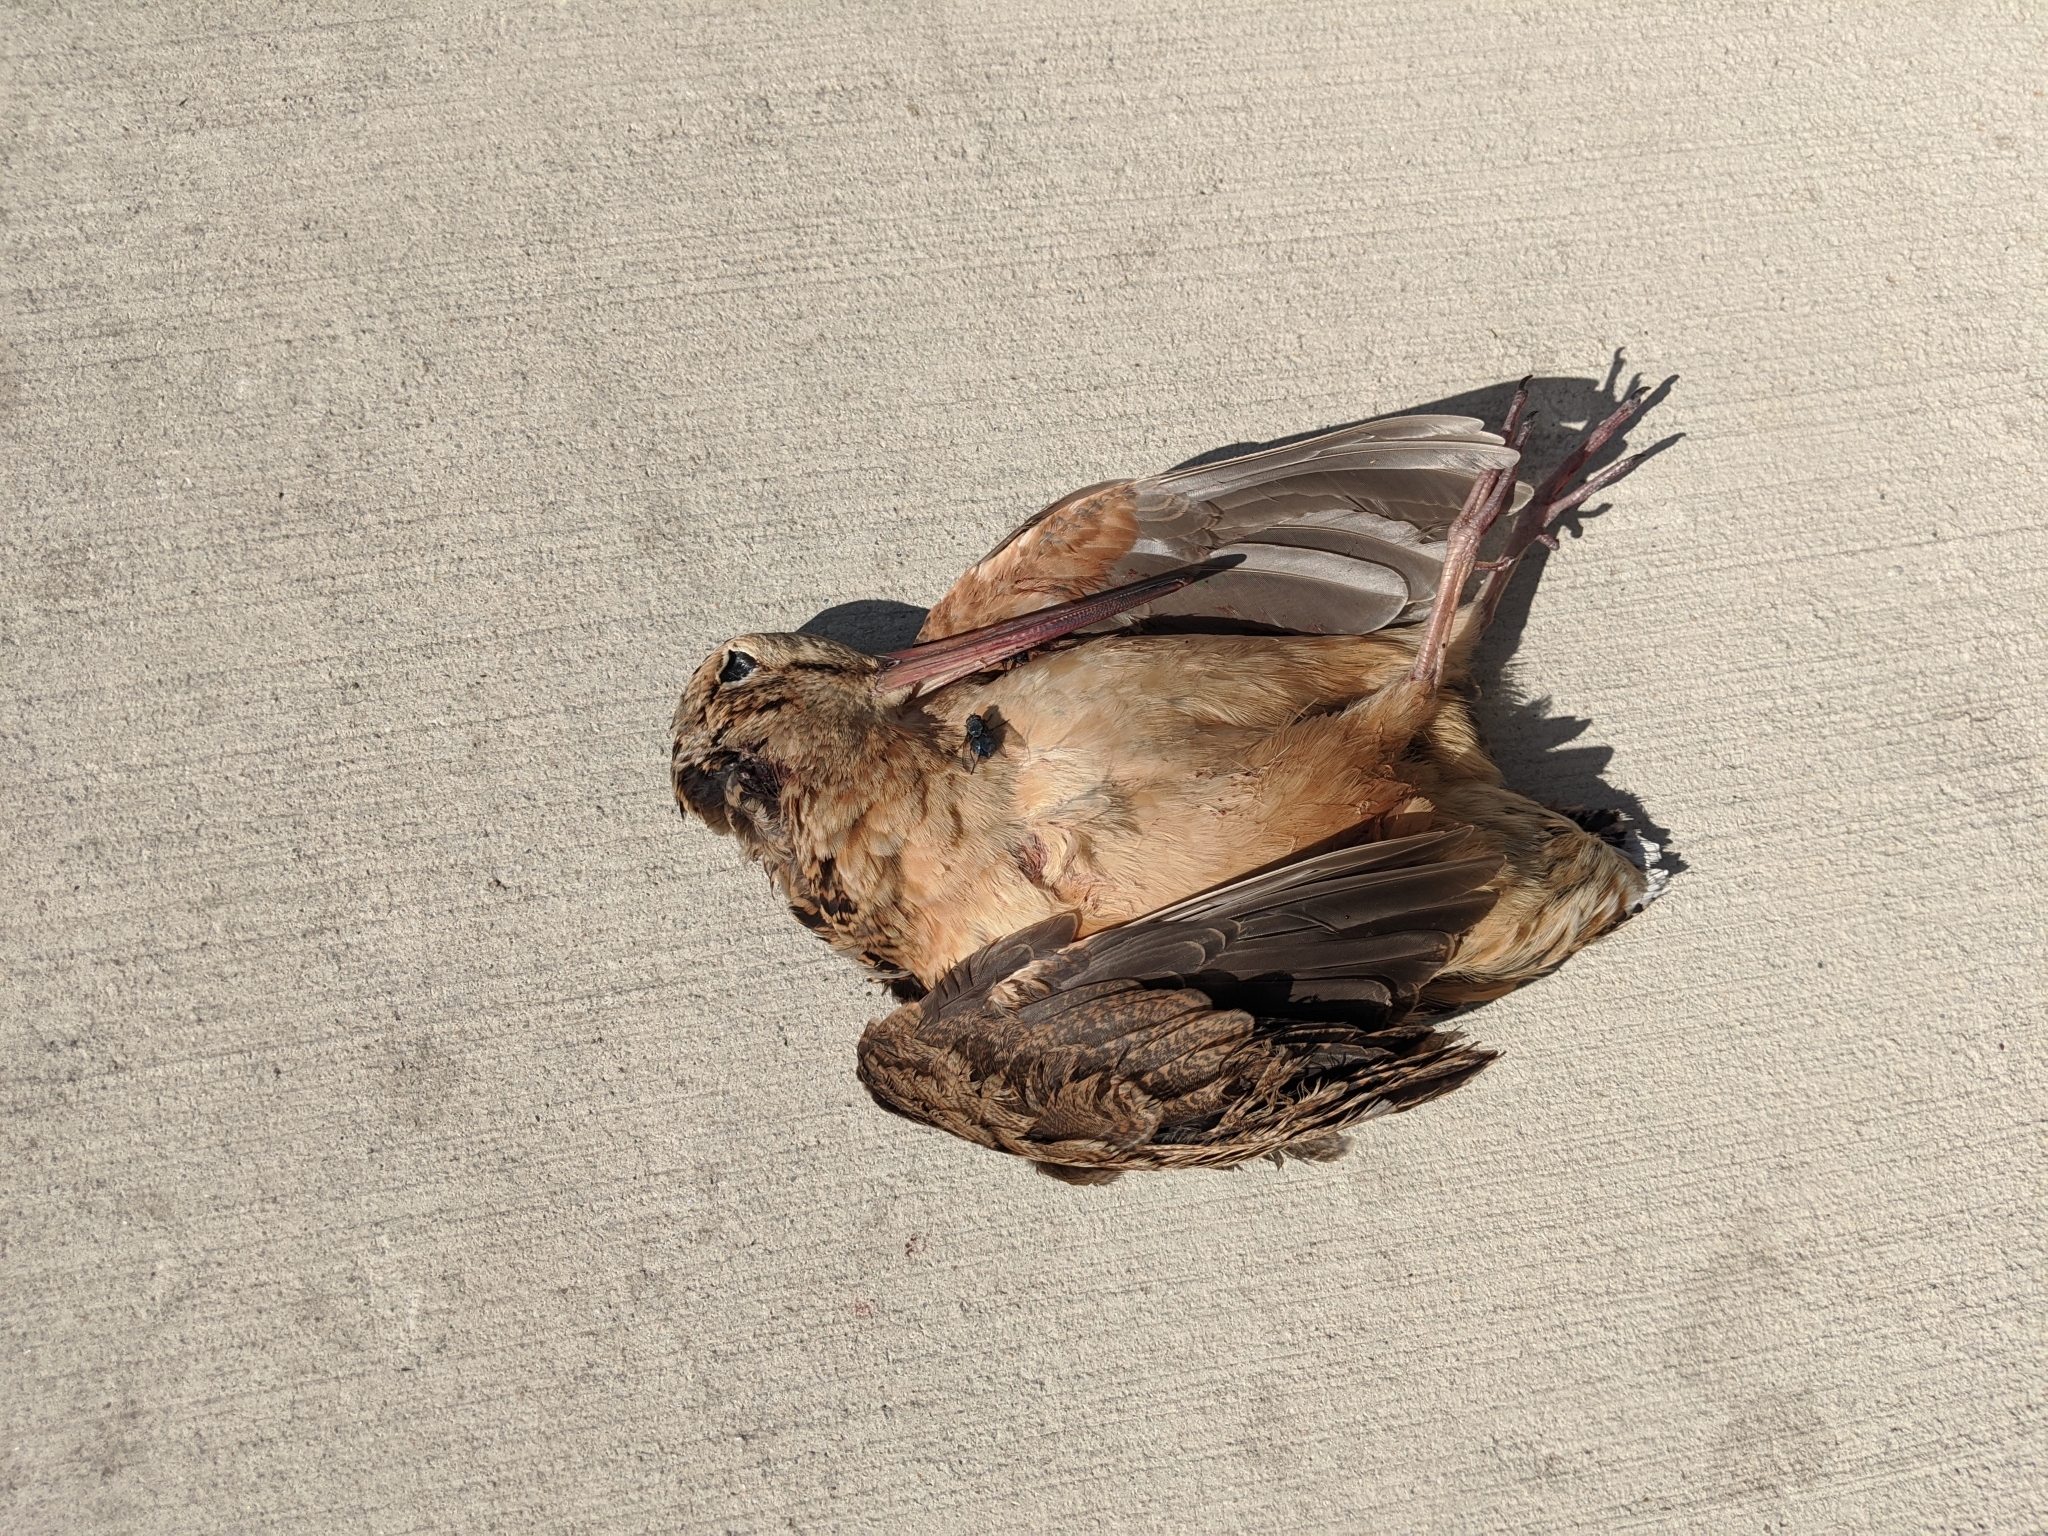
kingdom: Animalia
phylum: Chordata
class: Aves
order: Charadriiformes
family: Scolopacidae
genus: Scolopax
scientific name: Scolopax minor
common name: American woodcock
